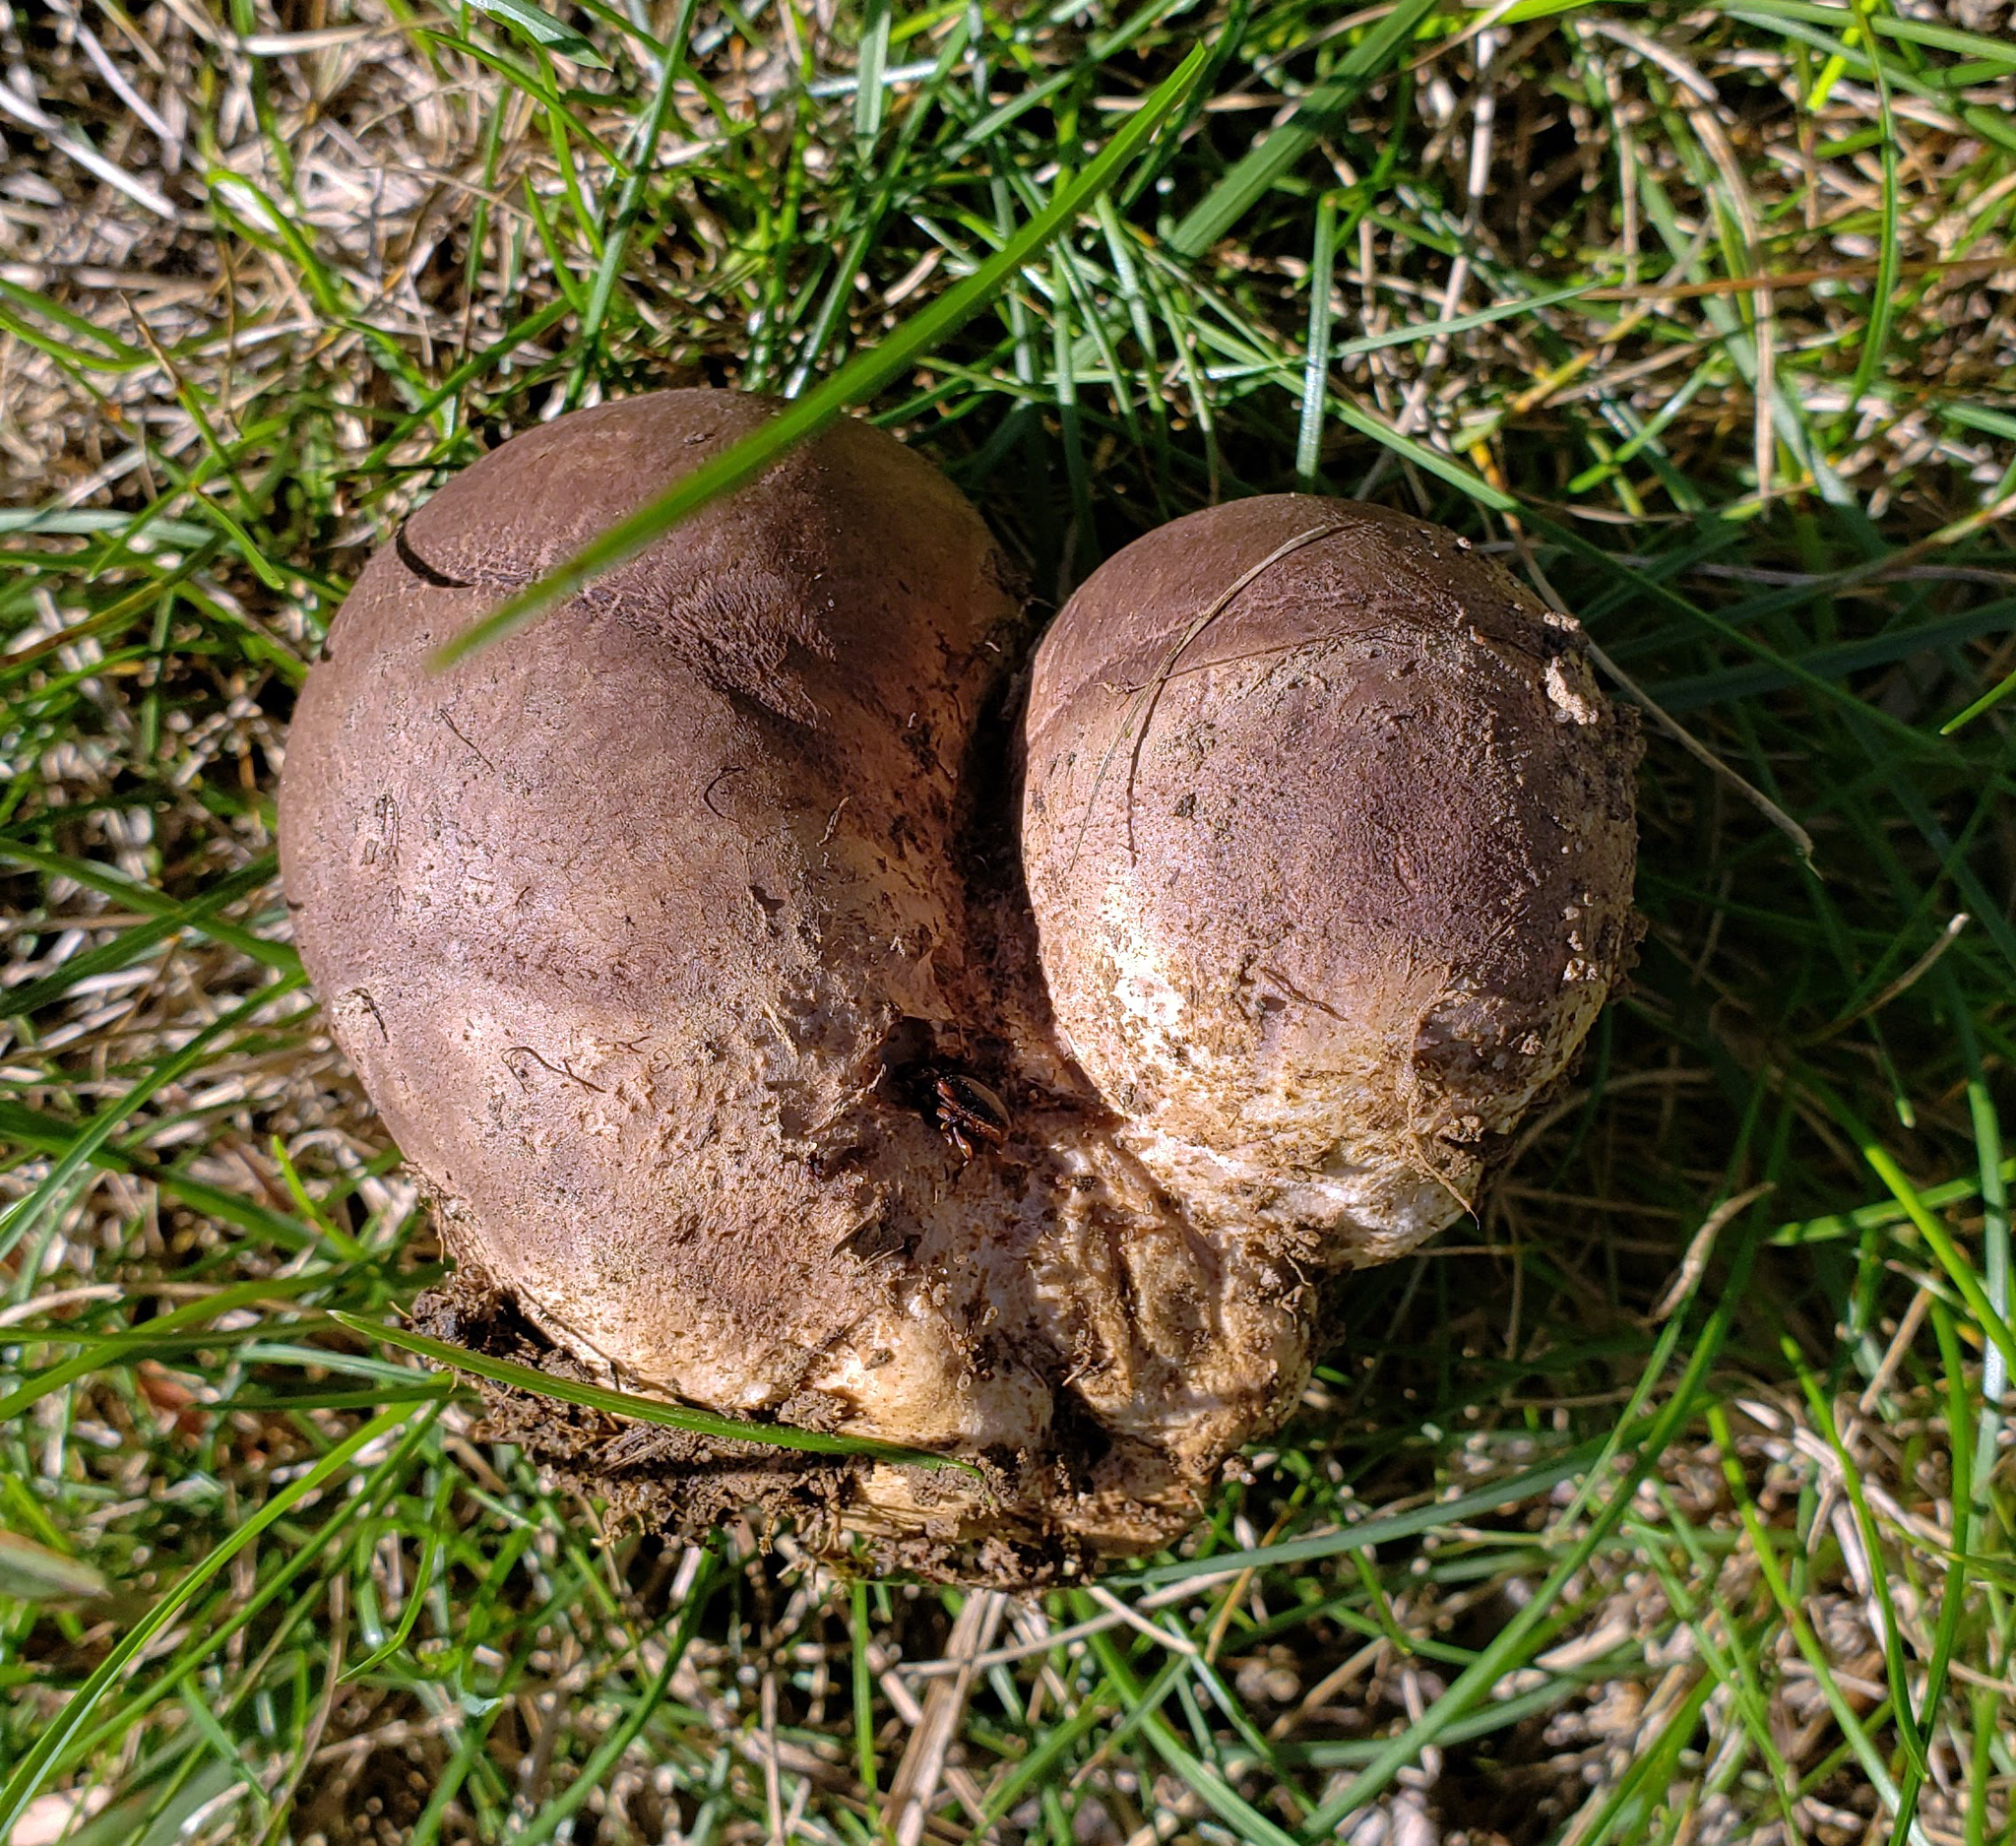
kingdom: Fungi
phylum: Basidiomycota
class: Agaricomycetes
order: Agaricales
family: Lycoperdaceae
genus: Calvatia
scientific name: Calvatia cyathiformis
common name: Purple-spored puffball
